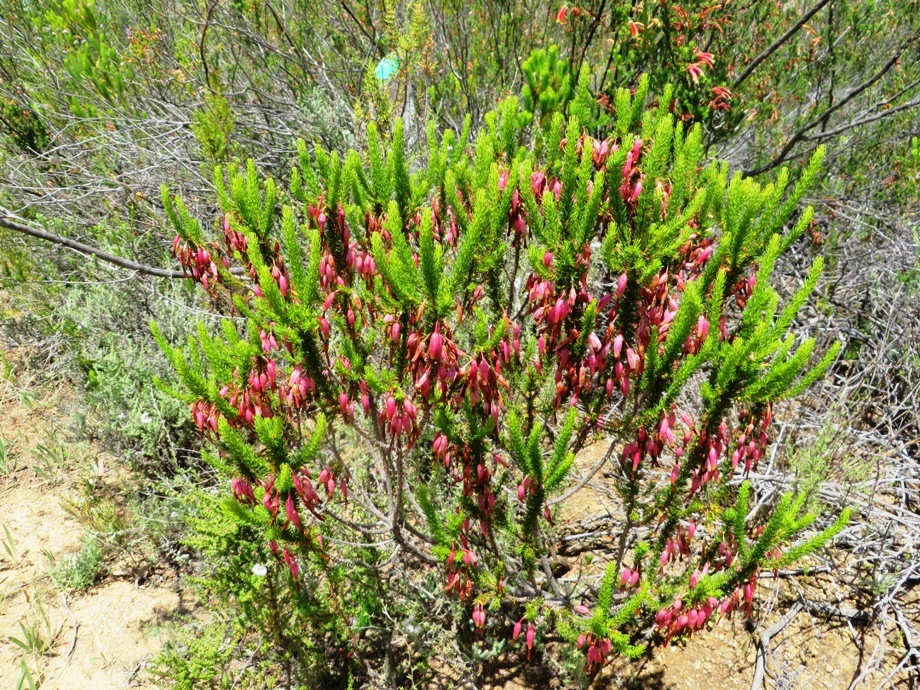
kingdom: Plantae
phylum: Tracheophyta
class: Magnoliopsida
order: Ericales
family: Ericaceae
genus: Erica
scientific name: Erica plukenetii
